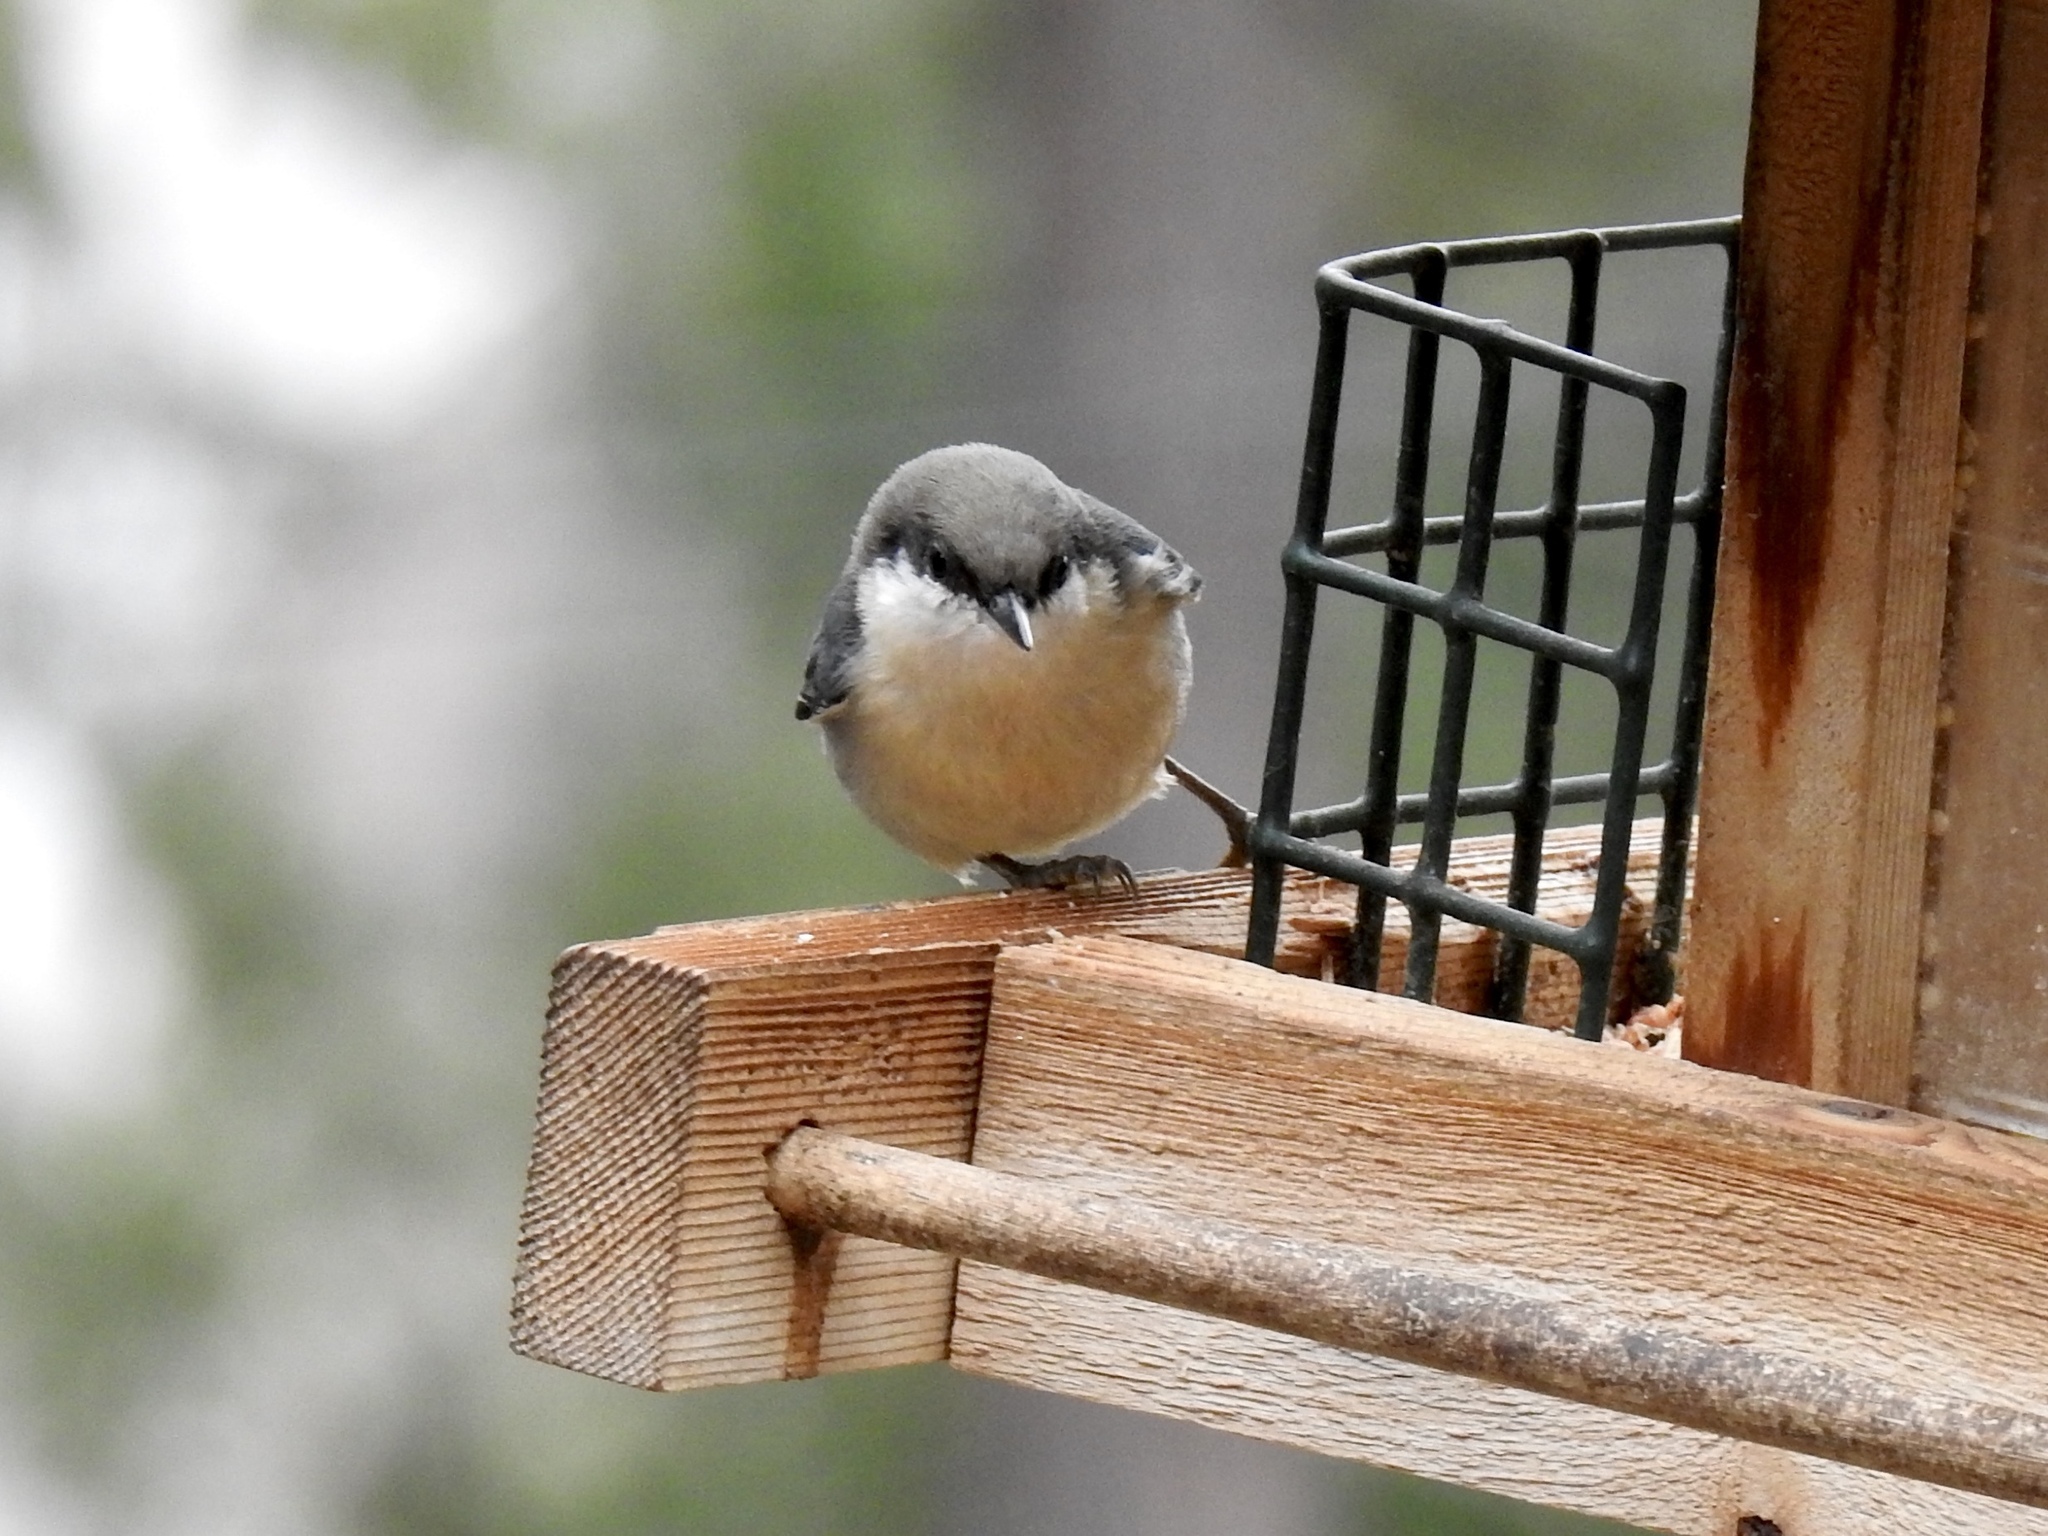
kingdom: Animalia
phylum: Chordata
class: Aves
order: Passeriformes
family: Sittidae
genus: Sitta
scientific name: Sitta pygmaea
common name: Pygmy nuthatch
